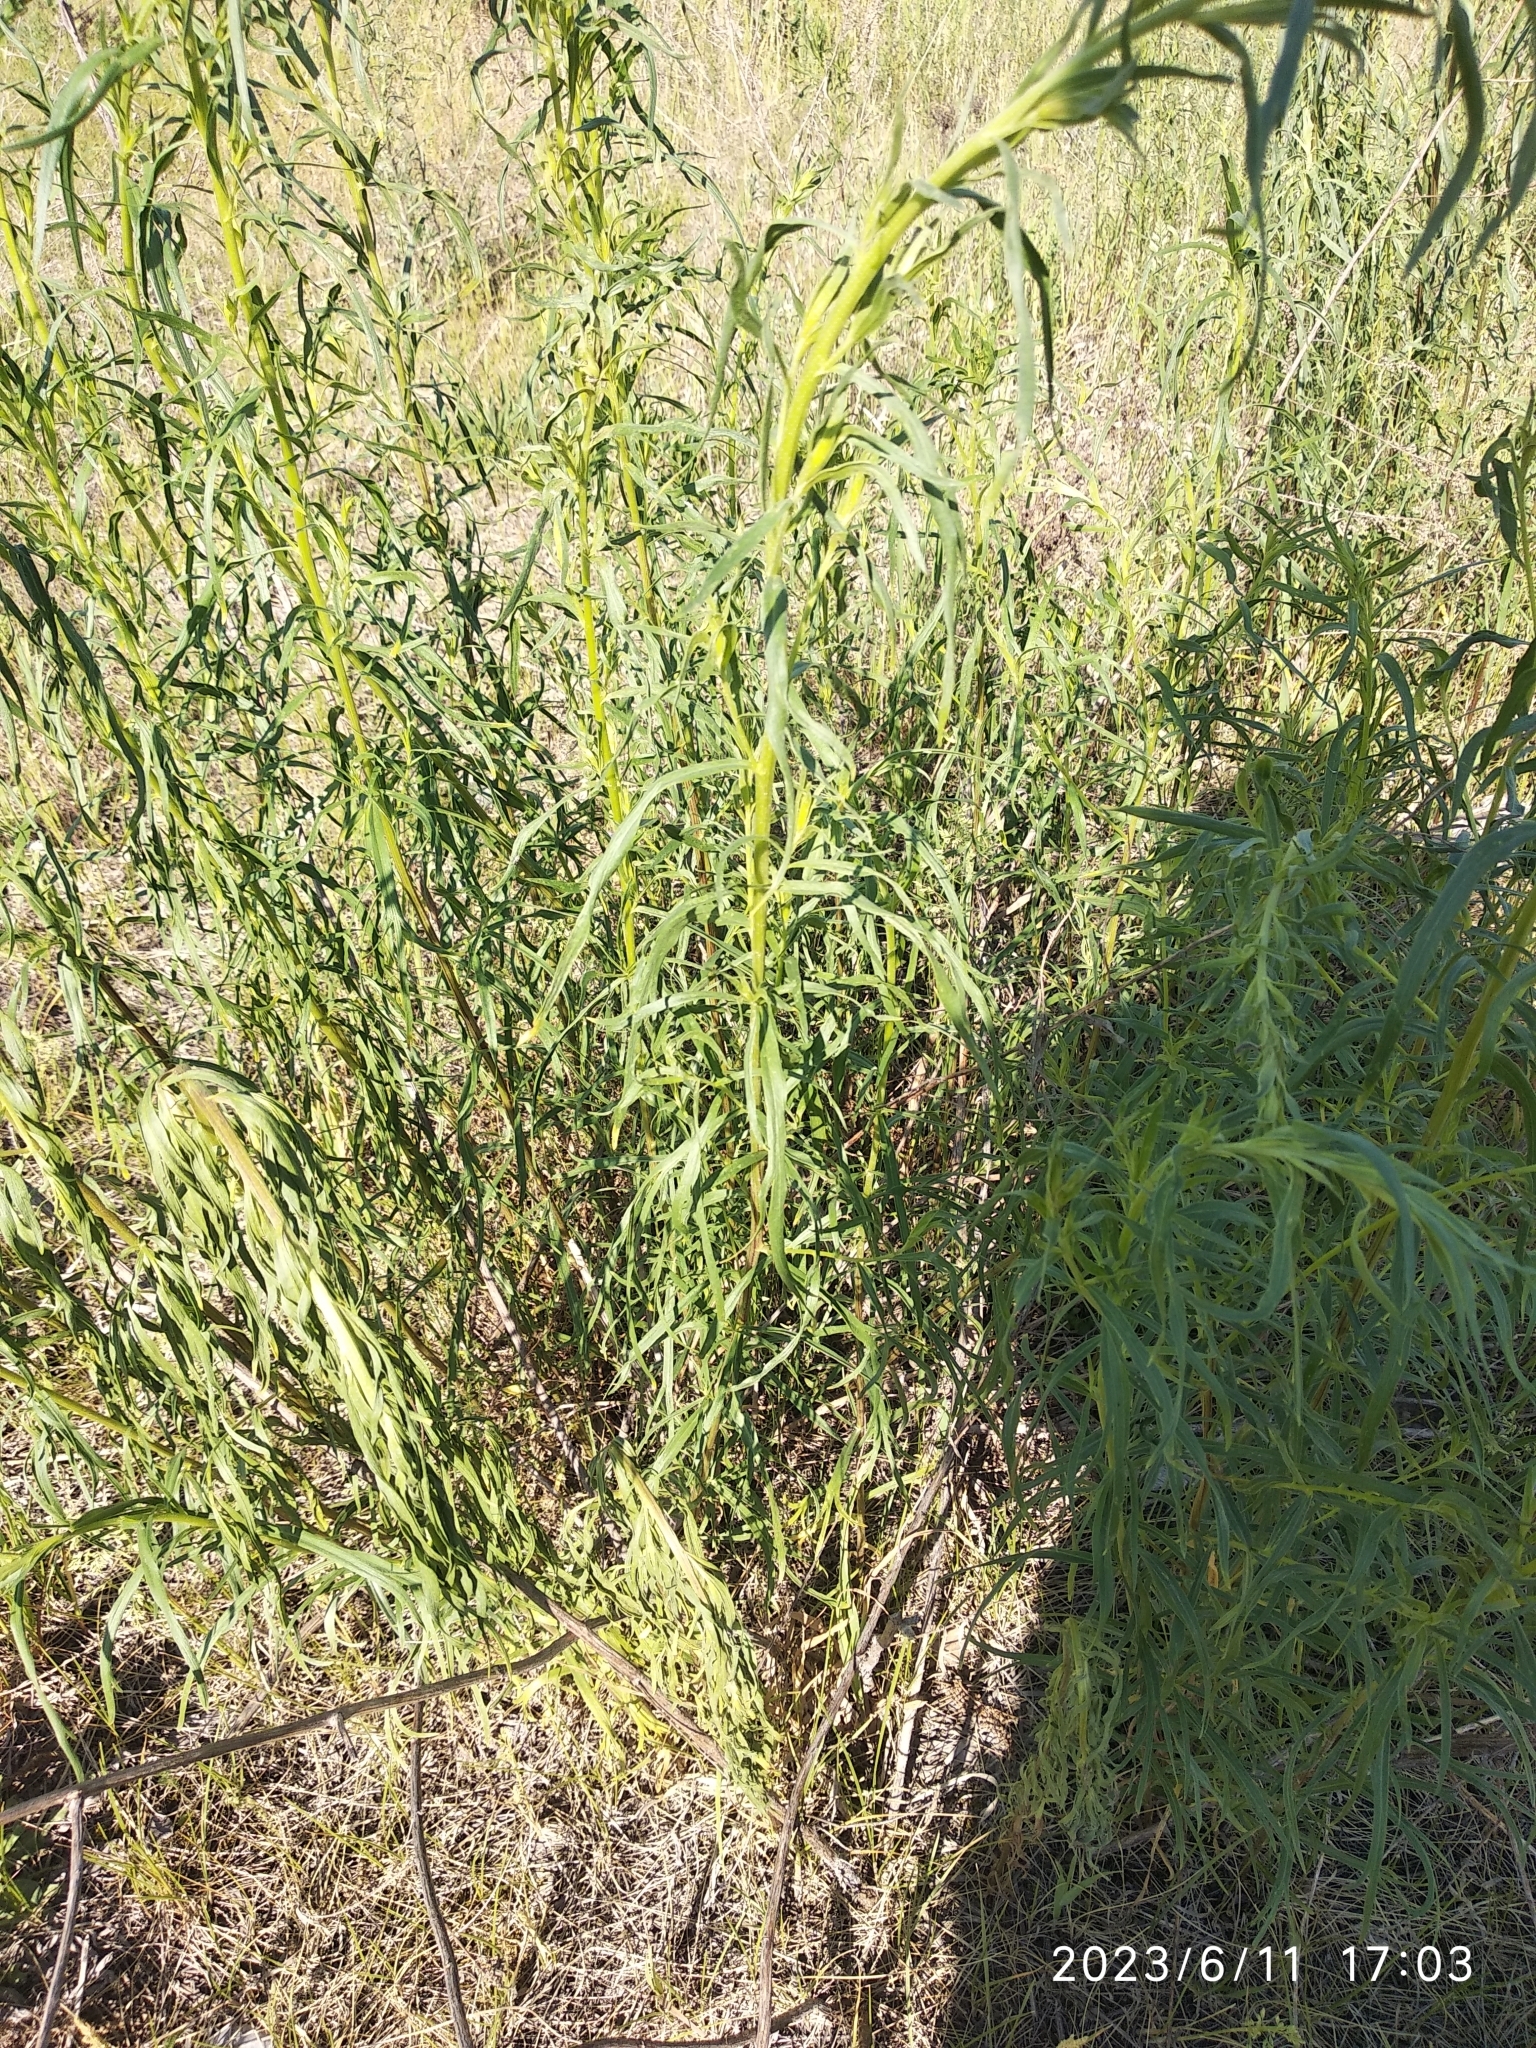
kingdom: Plantae
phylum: Tracheophyta
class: Magnoliopsida
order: Asterales
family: Asteraceae
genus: Artemisia
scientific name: Artemisia dracunculus
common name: Tarragon
